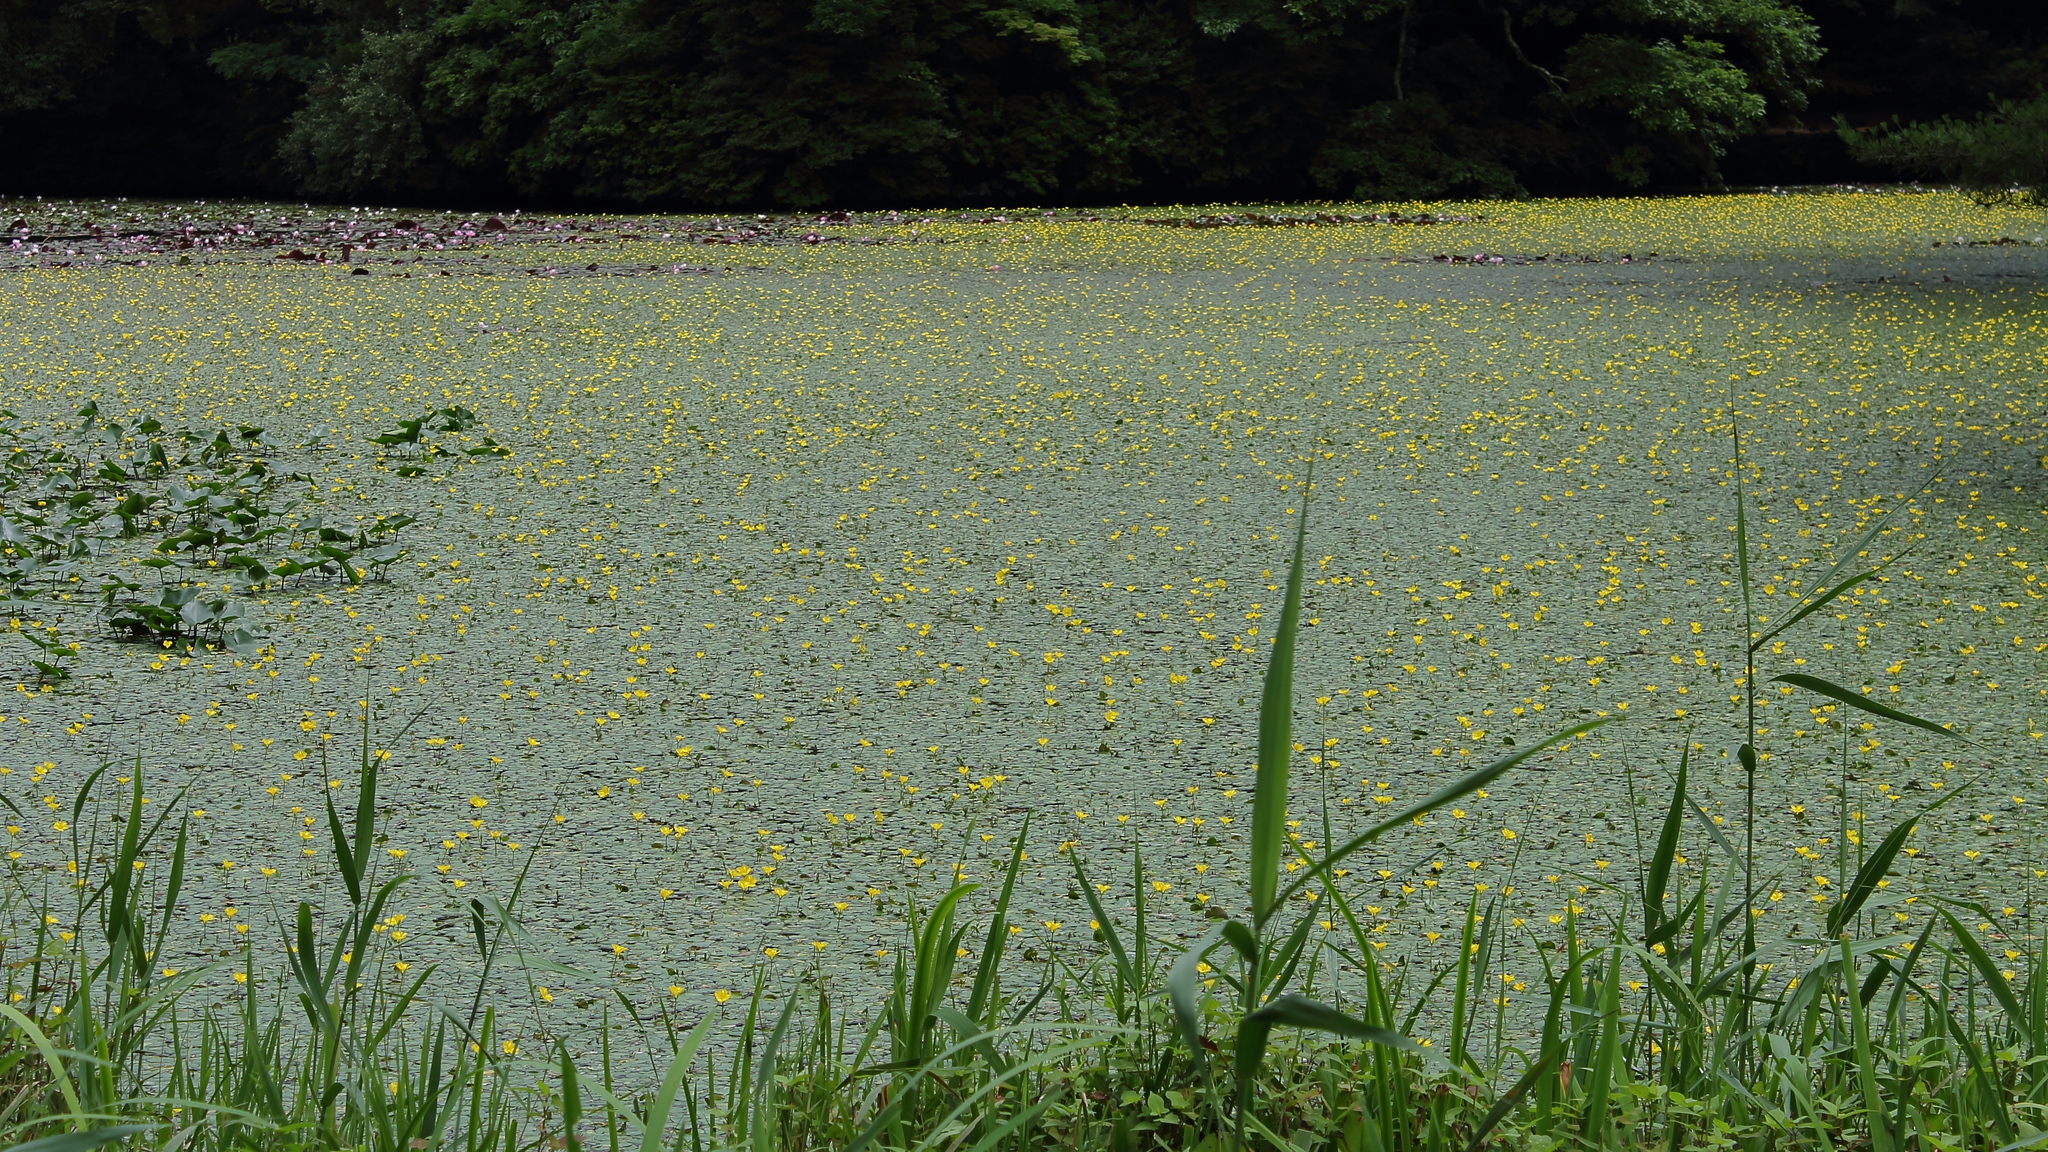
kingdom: Plantae
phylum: Tracheophyta
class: Magnoliopsida
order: Asterales
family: Menyanthaceae
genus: Nymphoides
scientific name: Nymphoides peltata
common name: Fringed water-lily
